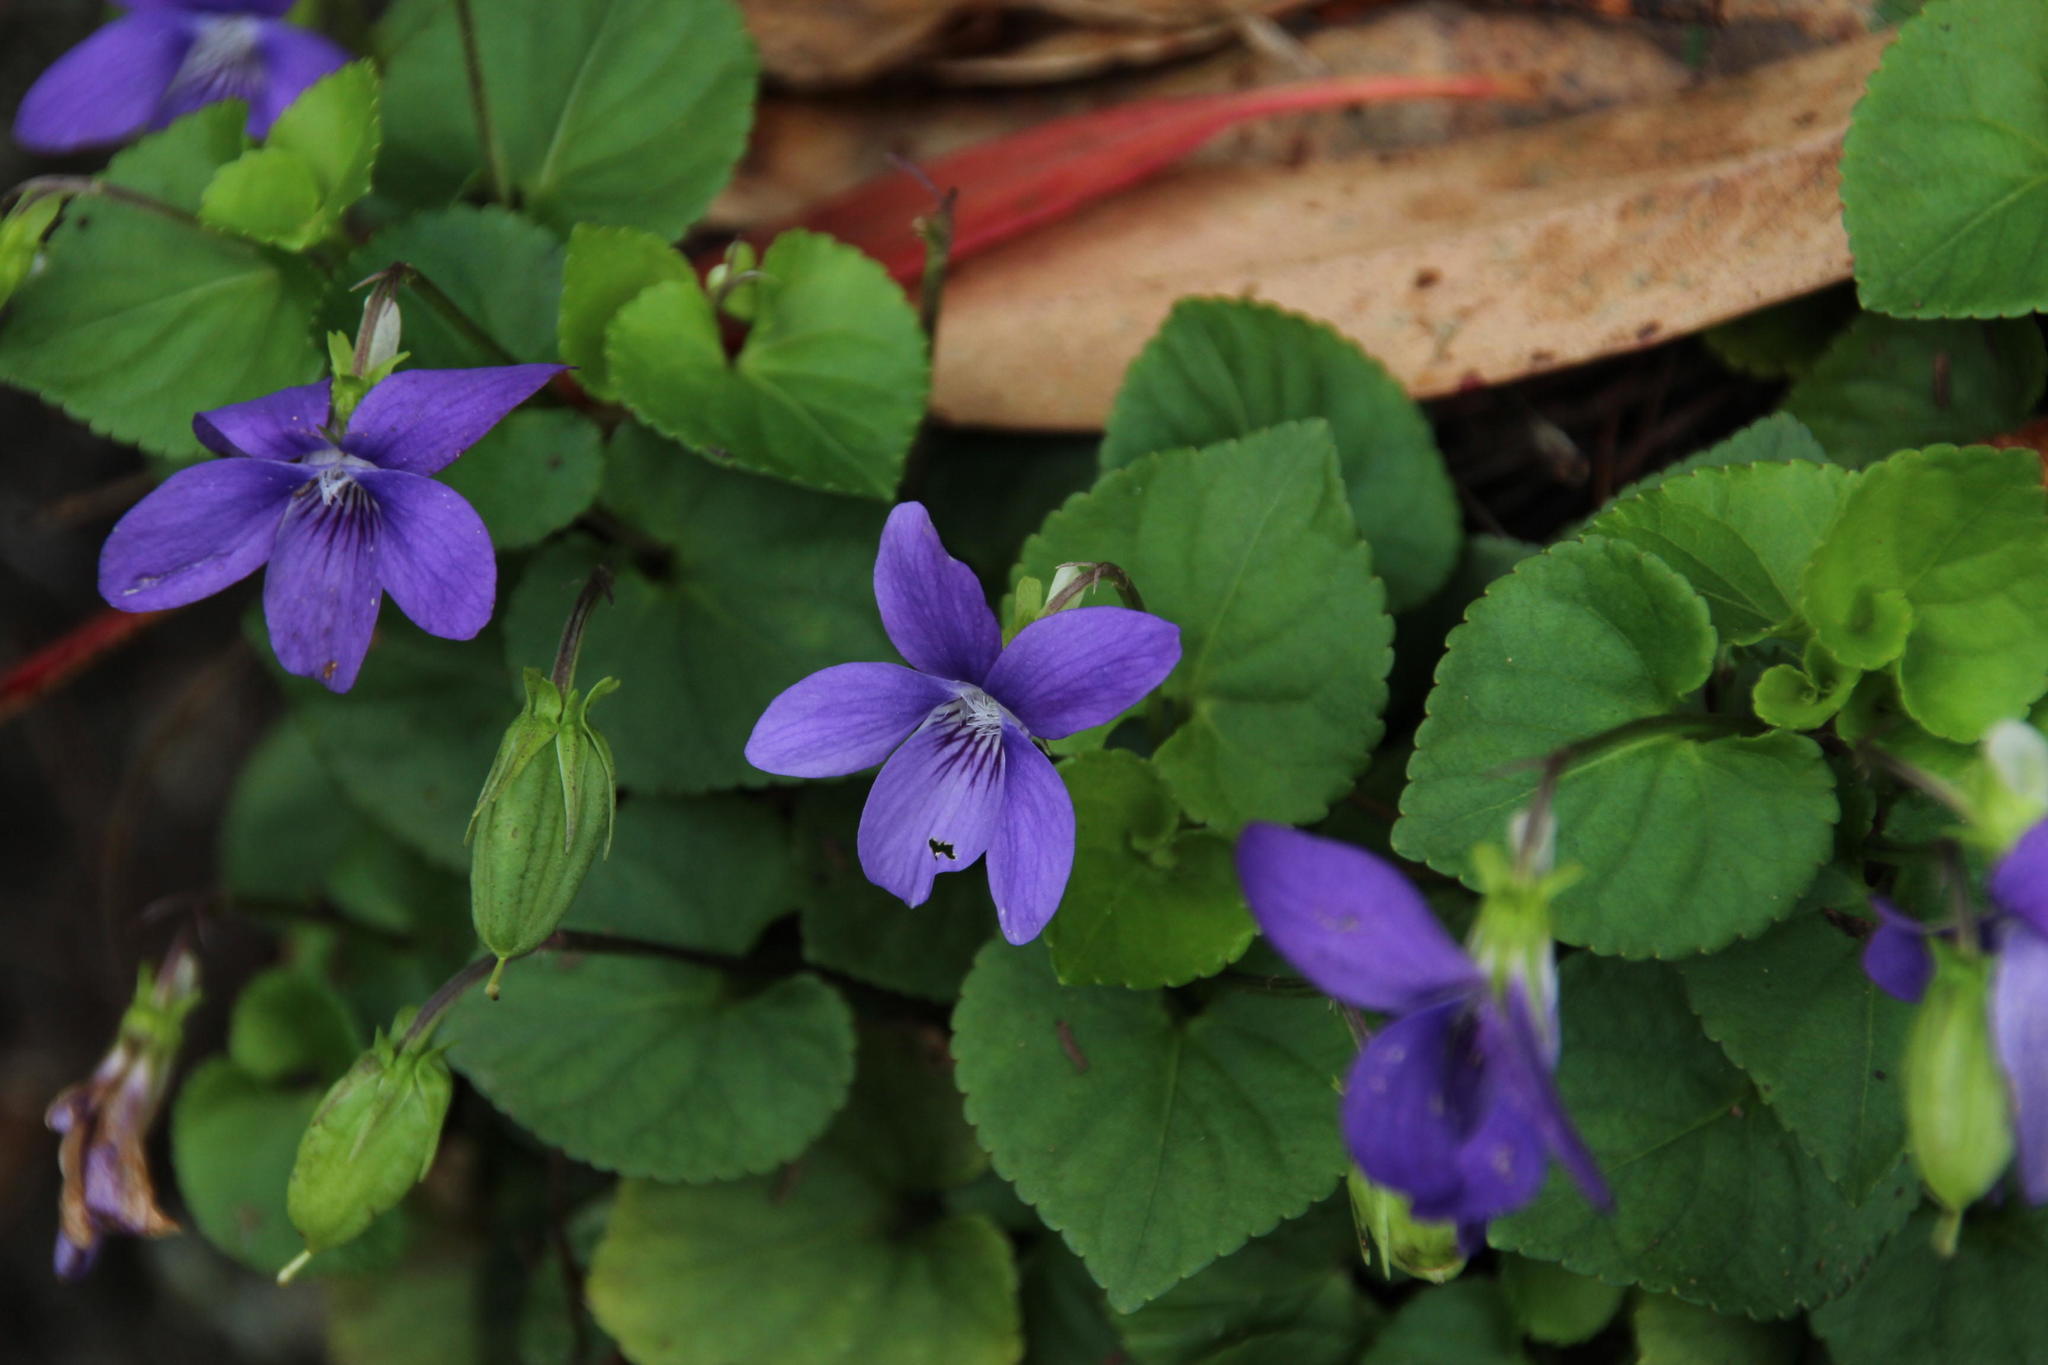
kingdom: Plantae
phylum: Tracheophyta
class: Magnoliopsida
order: Malpighiales
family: Violaceae
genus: Viola
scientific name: Viola riviniana
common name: Common dog-violet
